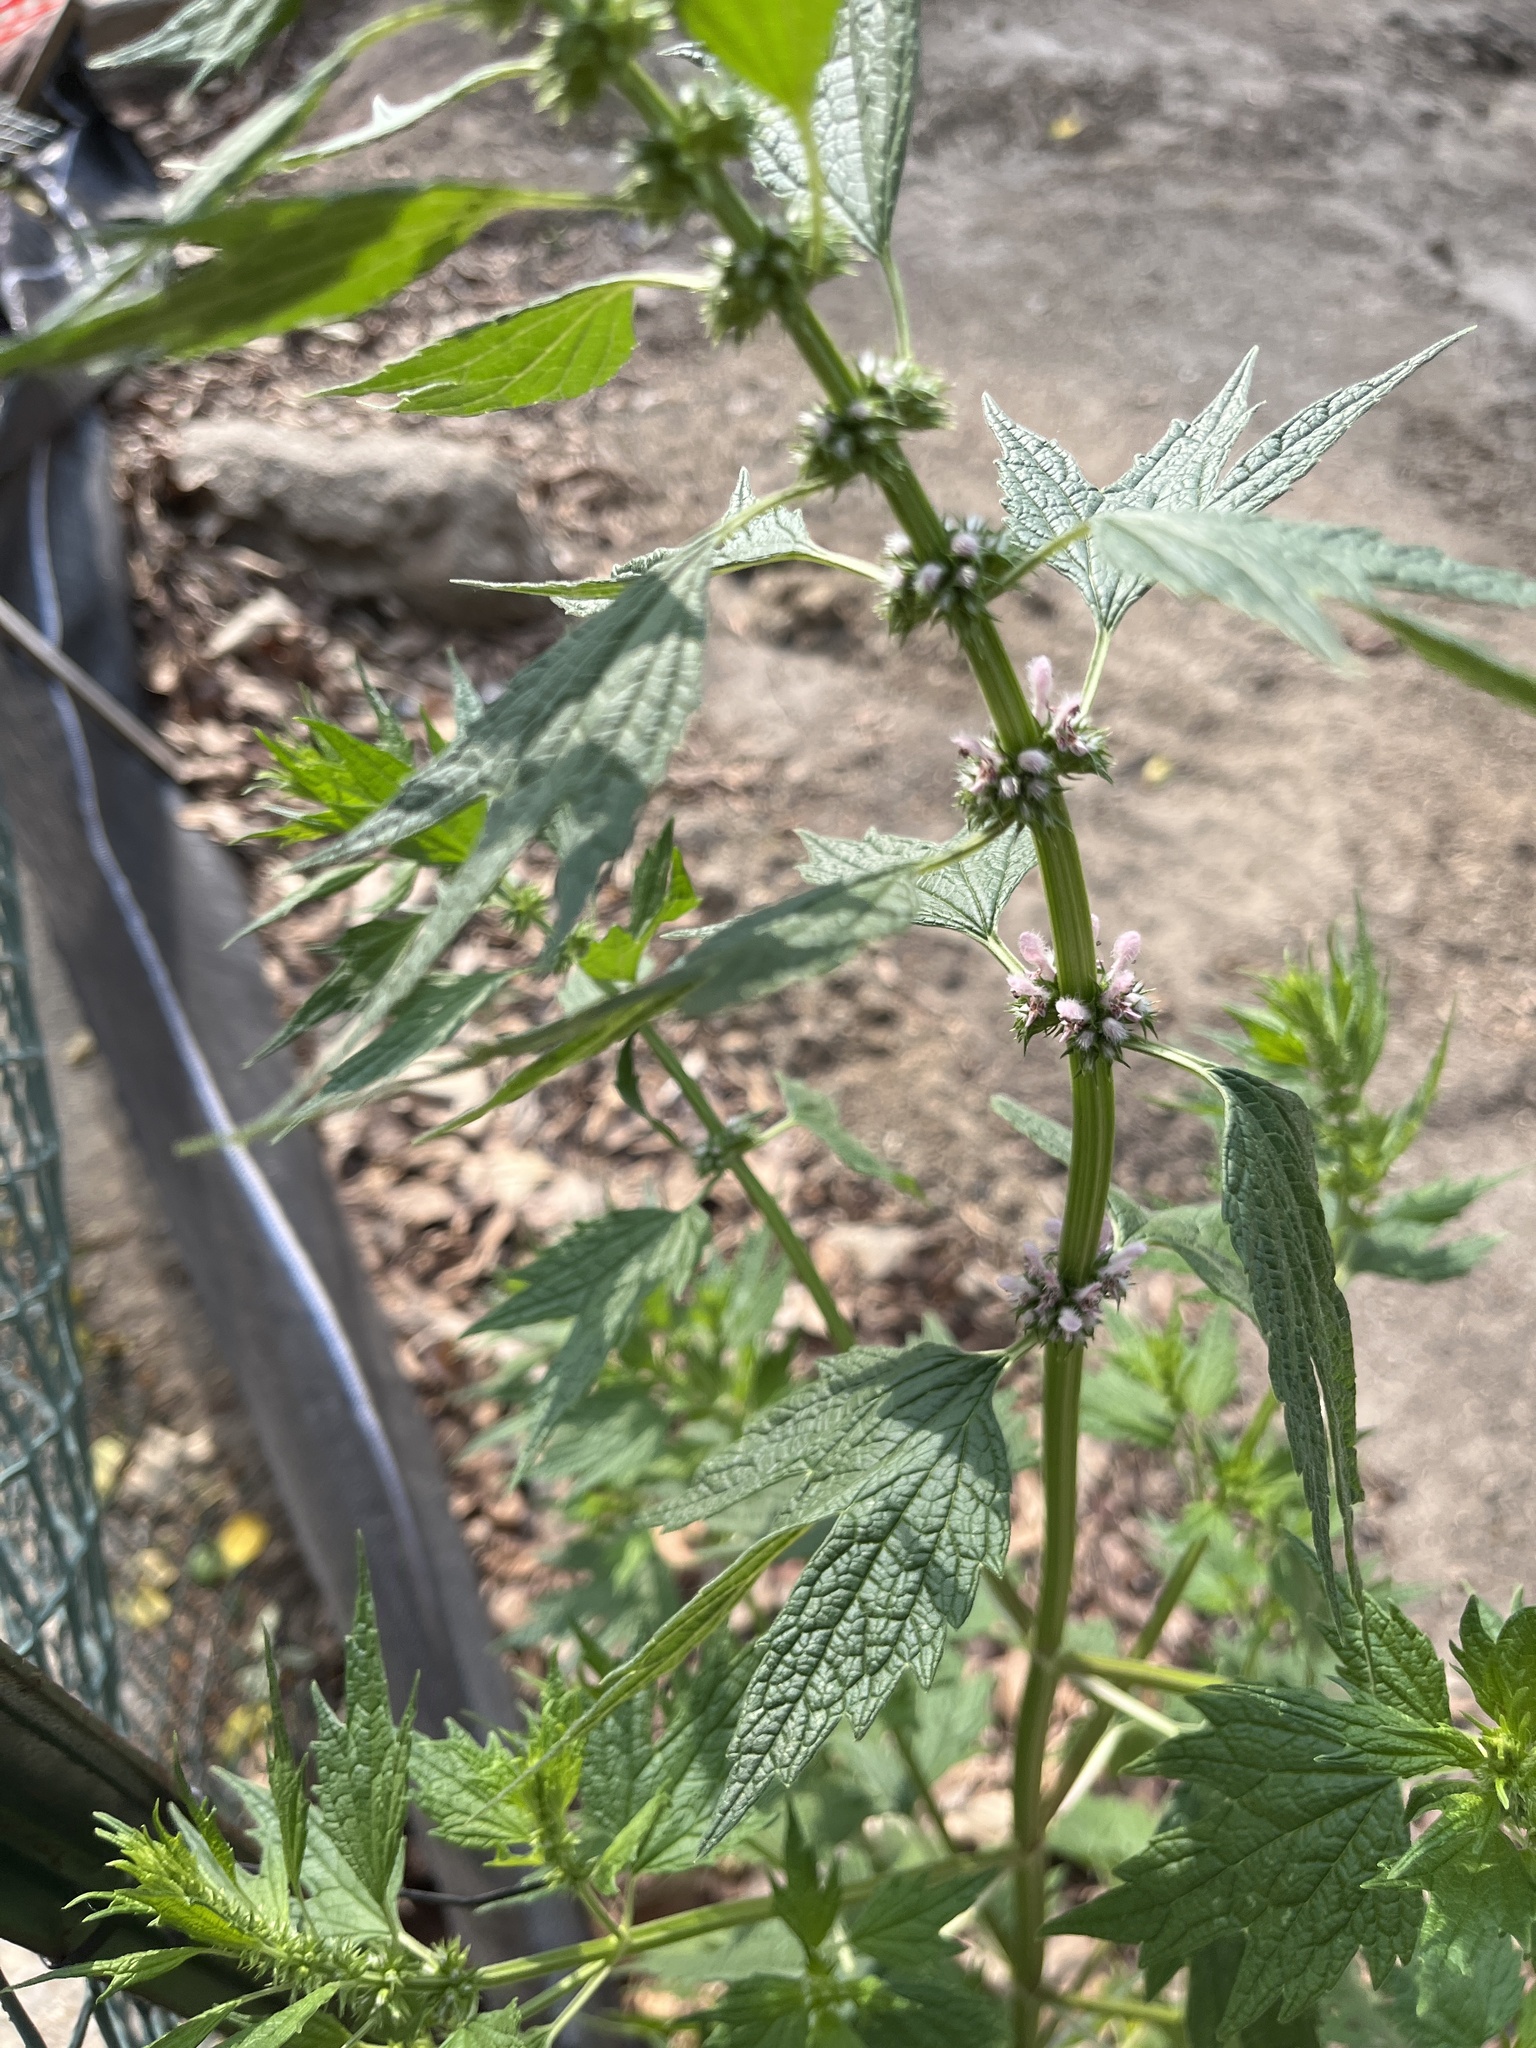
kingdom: Plantae
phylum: Tracheophyta
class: Magnoliopsida
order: Lamiales
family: Lamiaceae
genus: Leonurus
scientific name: Leonurus cardiaca
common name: Motherwort
